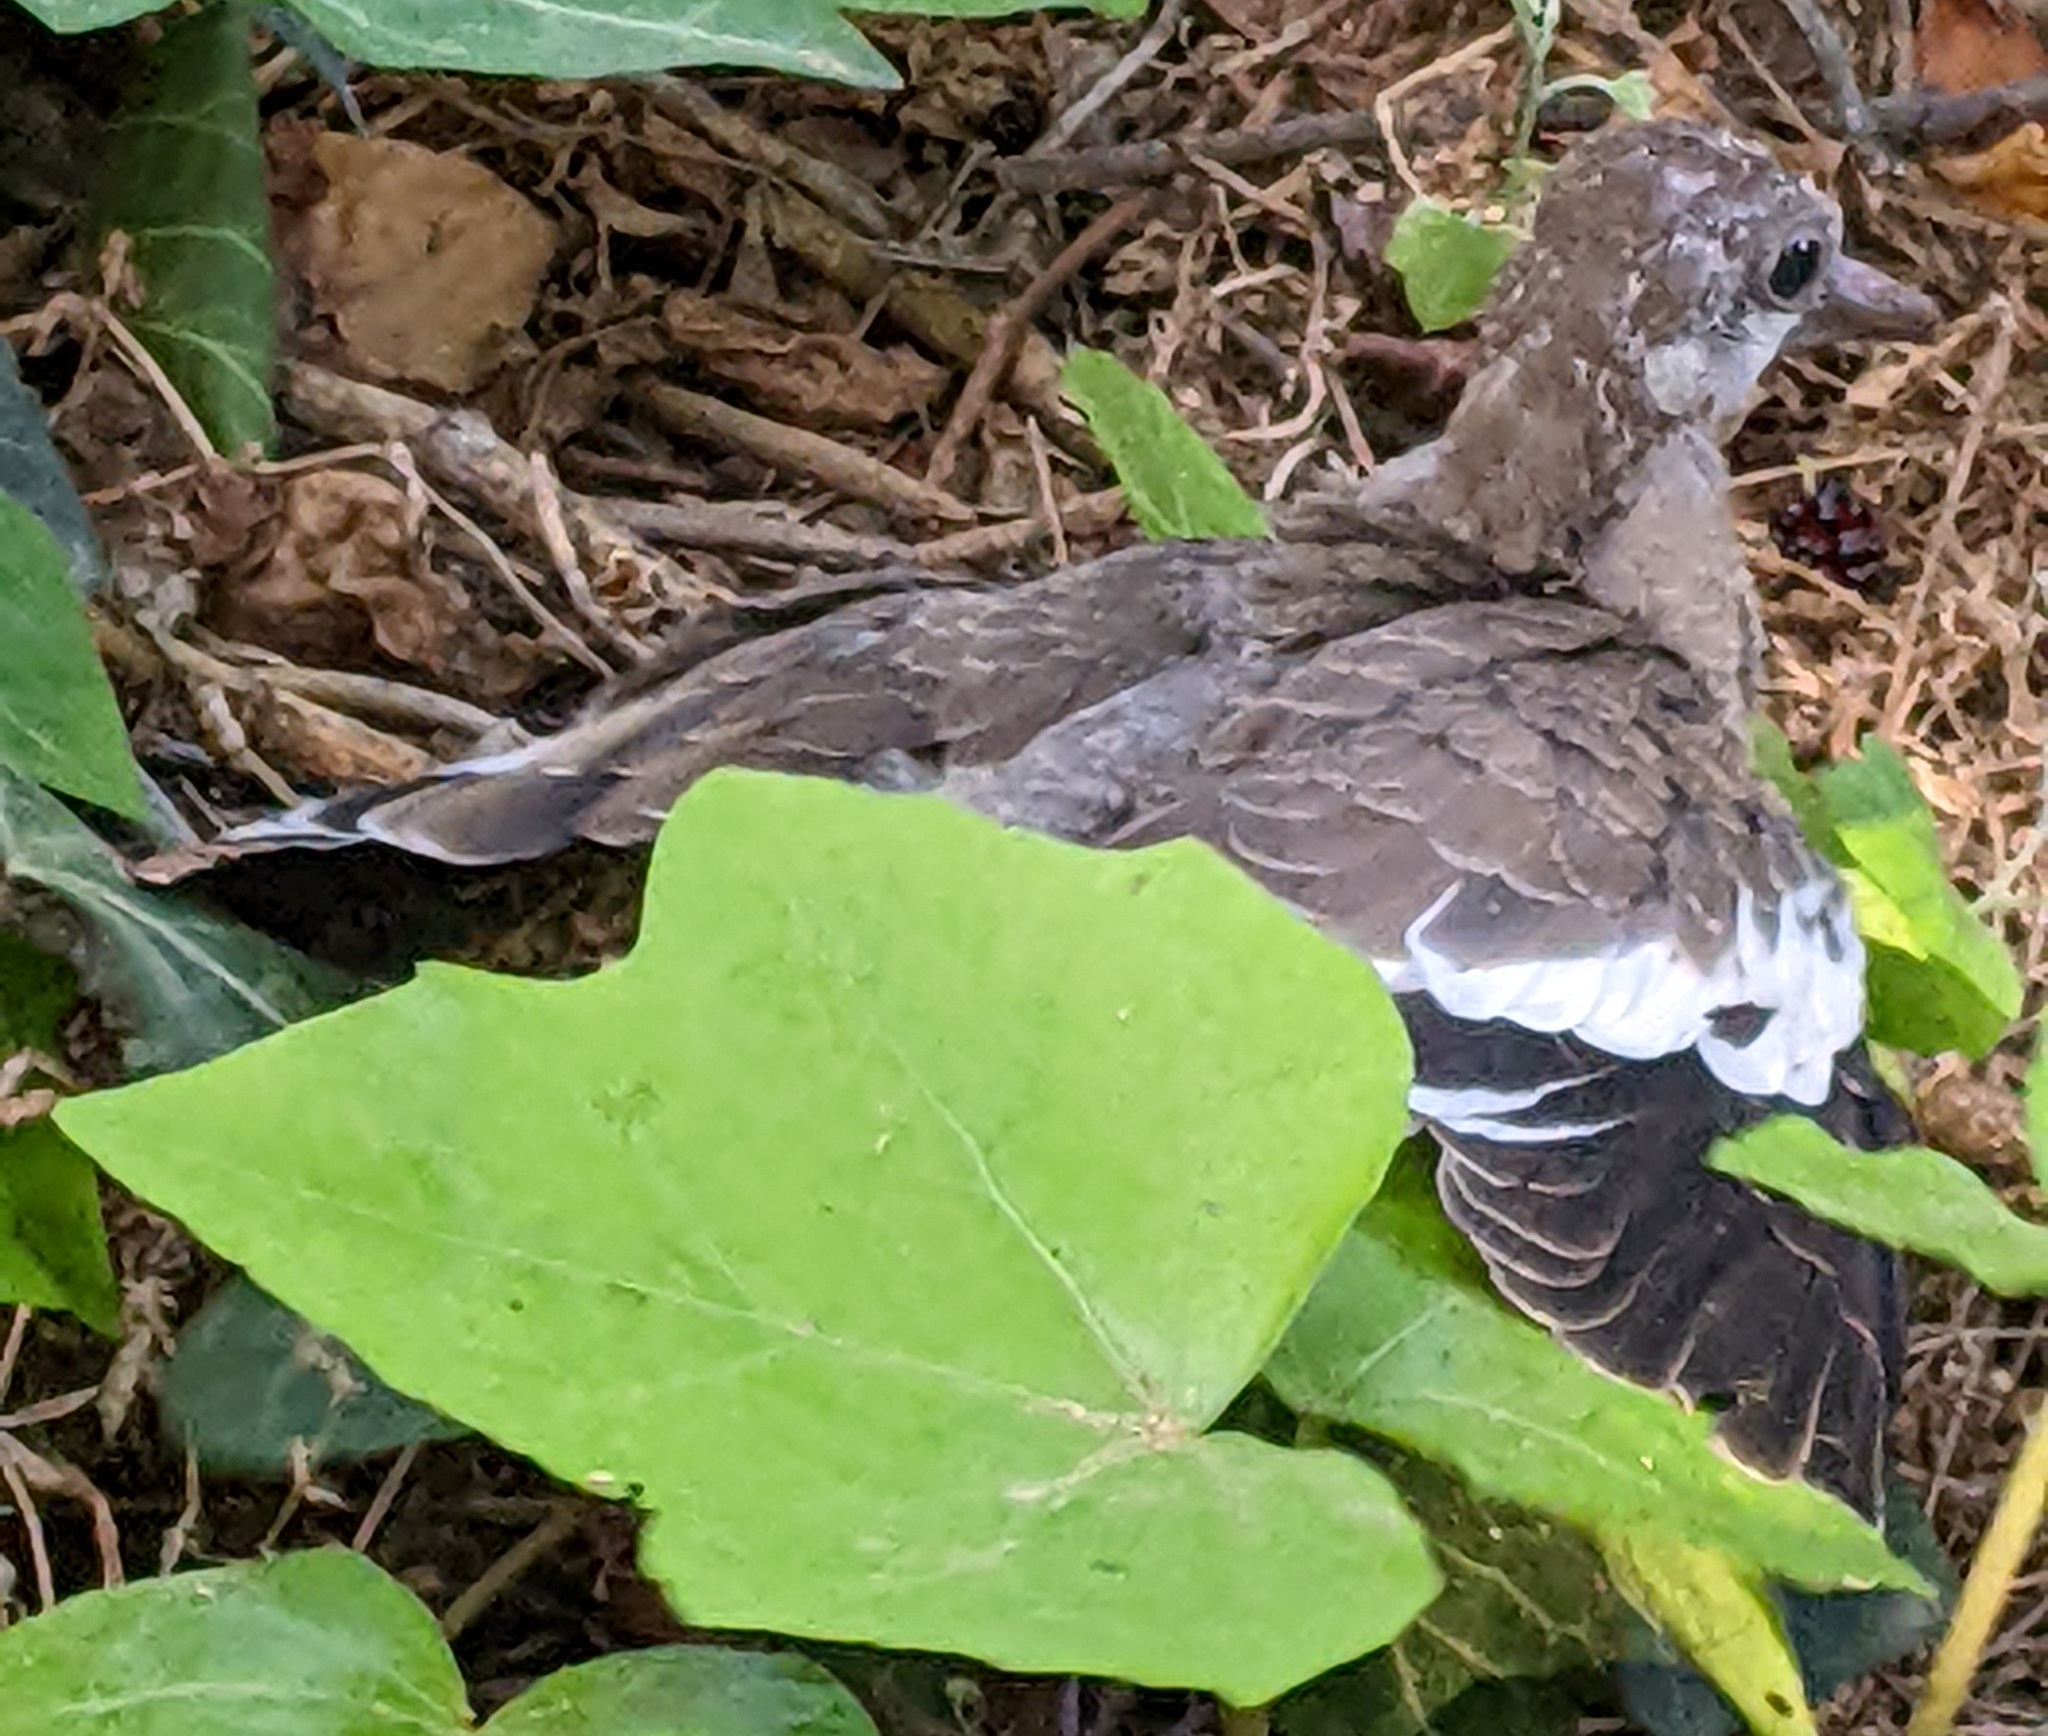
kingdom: Animalia
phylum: Chordata
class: Aves
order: Columbiformes
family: Columbidae
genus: Zenaida
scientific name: Zenaida asiatica
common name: White-winged dove
